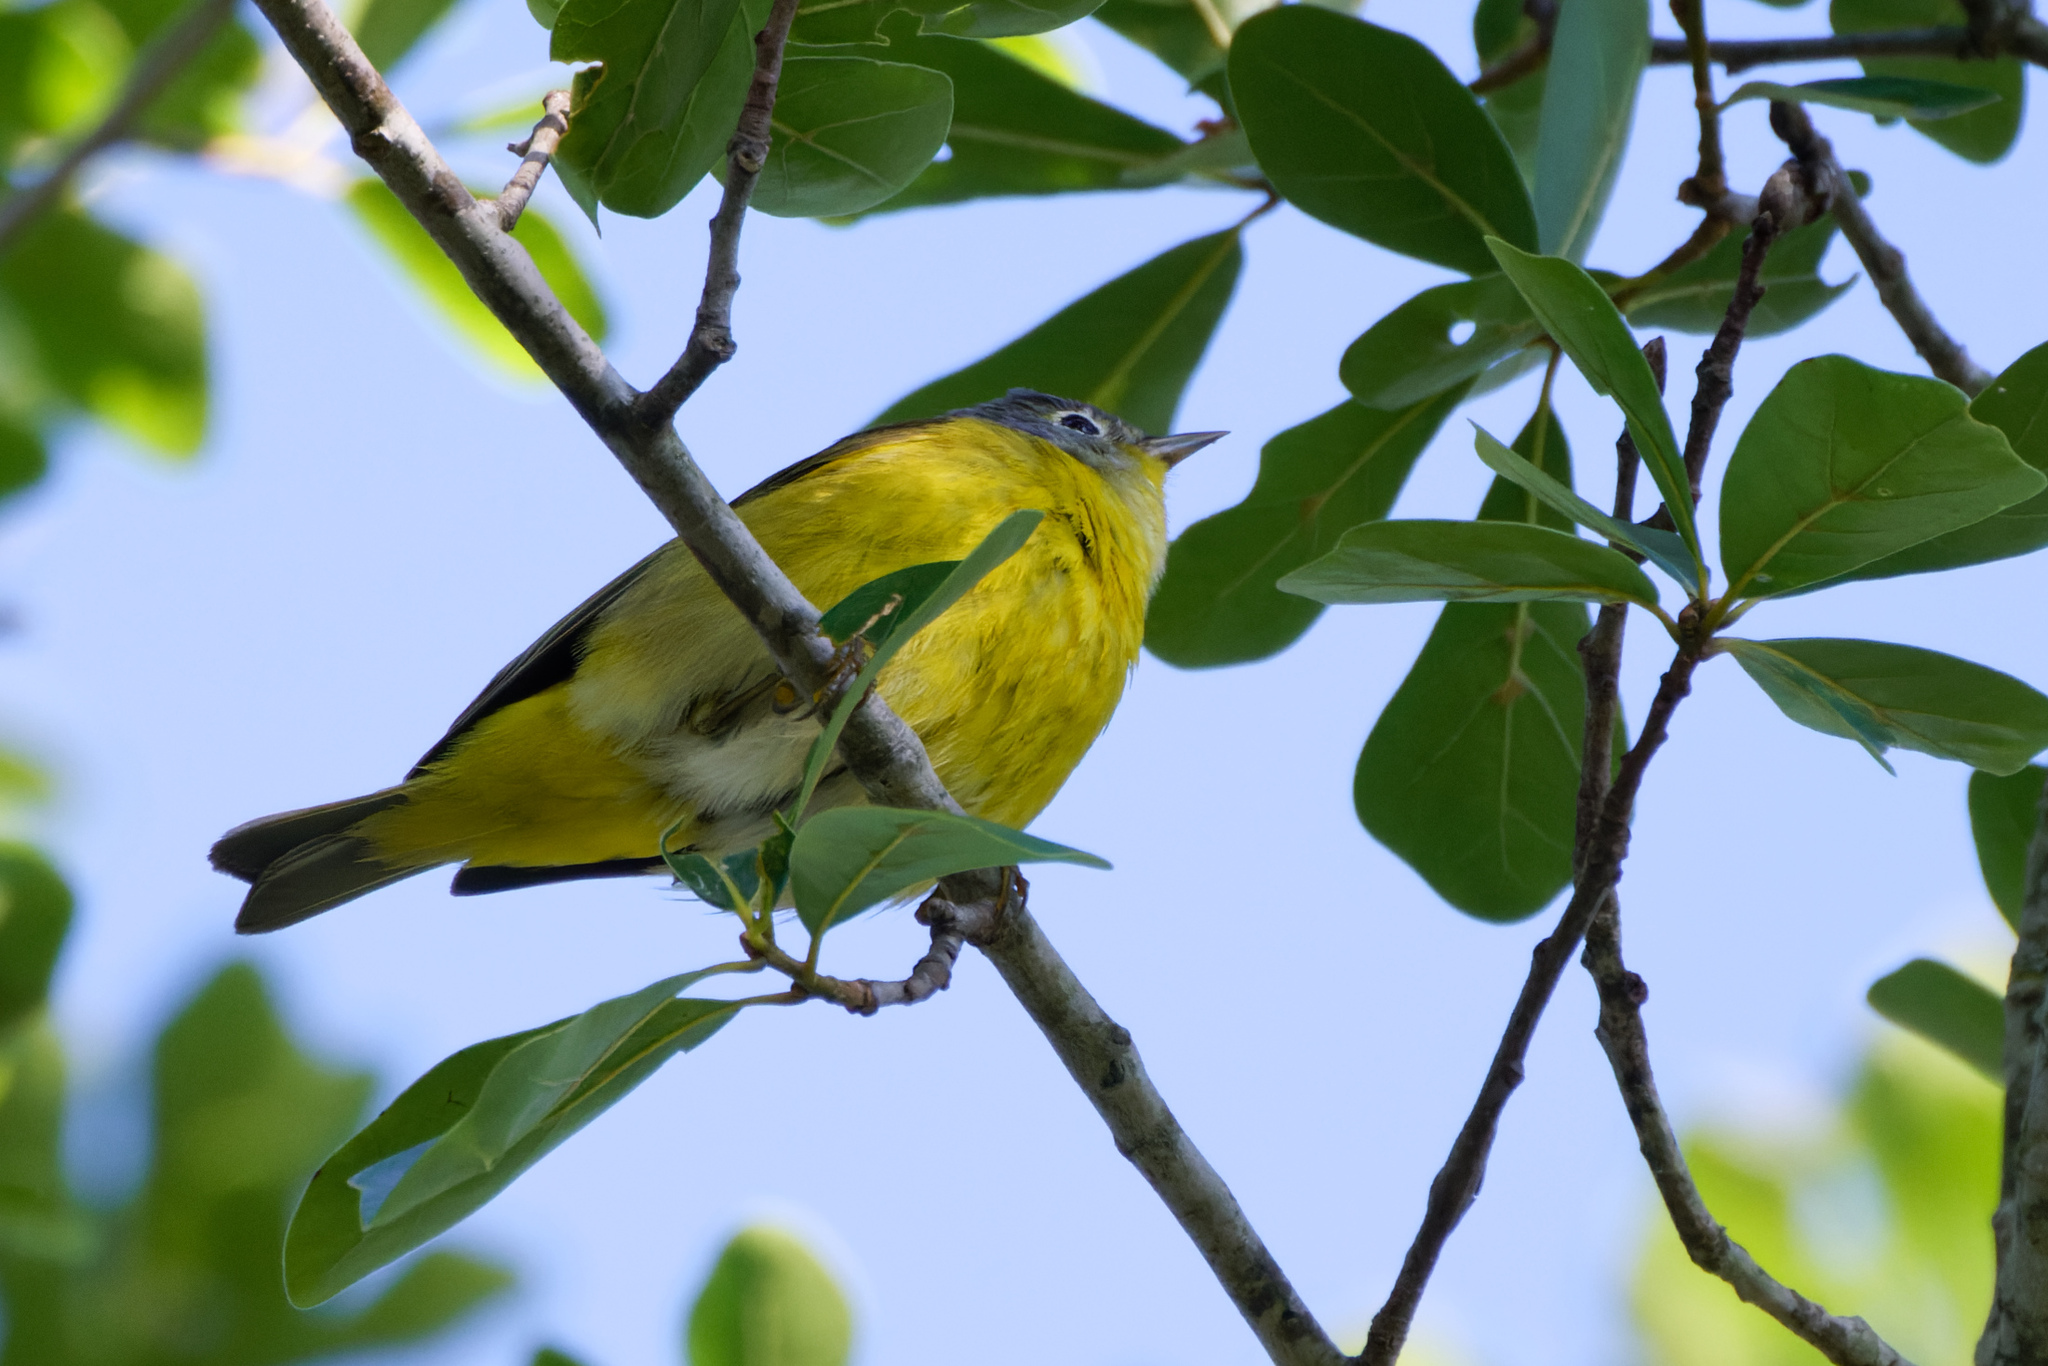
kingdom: Animalia
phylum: Chordata
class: Aves
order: Passeriformes
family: Parulidae
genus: Leiothlypis
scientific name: Leiothlypis ruficapilla
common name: Nashville warbler
